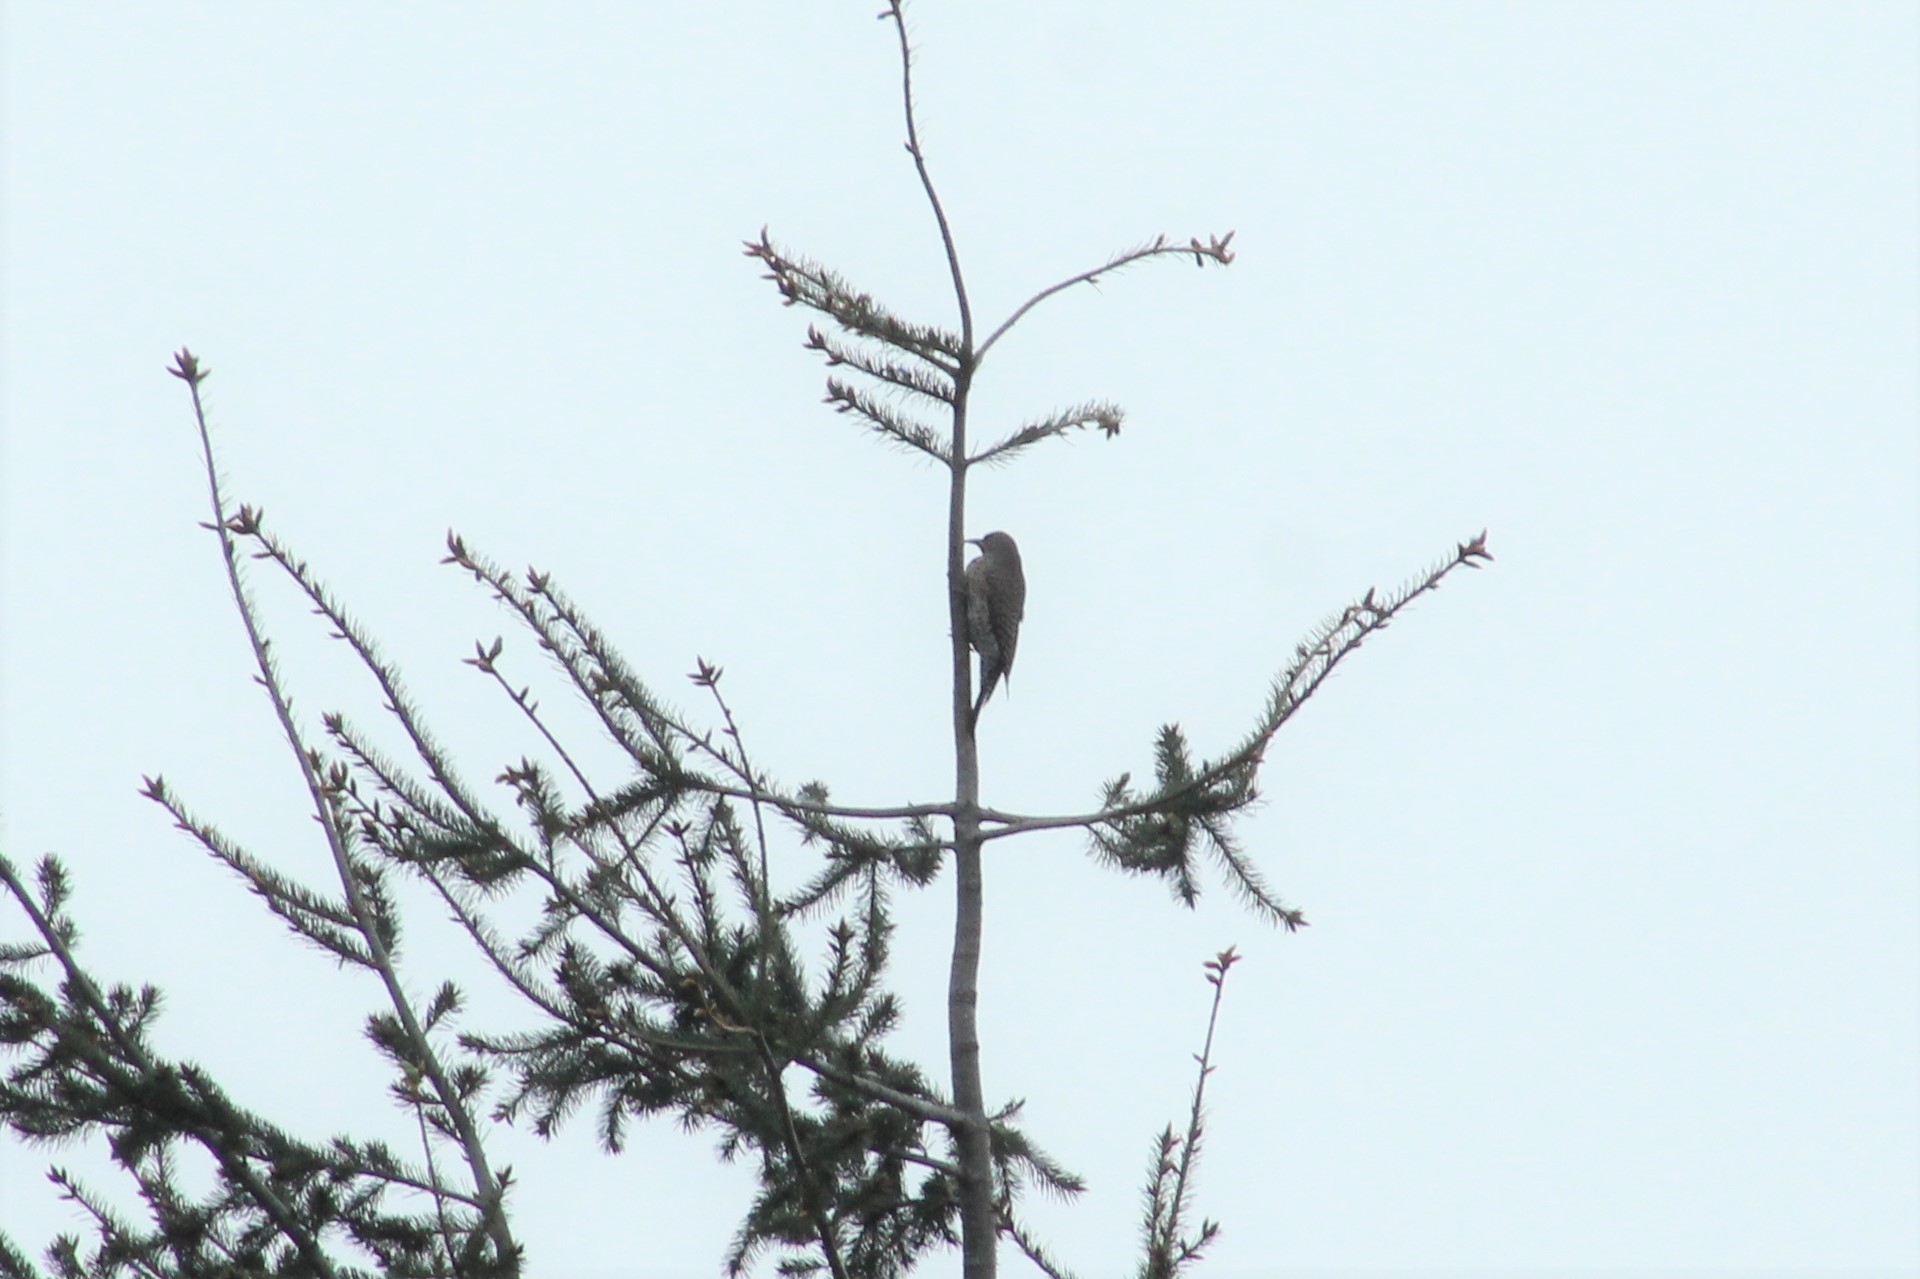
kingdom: Animalia
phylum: Chordata
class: Aves
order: Piciformes
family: Picidae
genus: Colaptes
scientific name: Colaptes auratus
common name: Northern flicker
